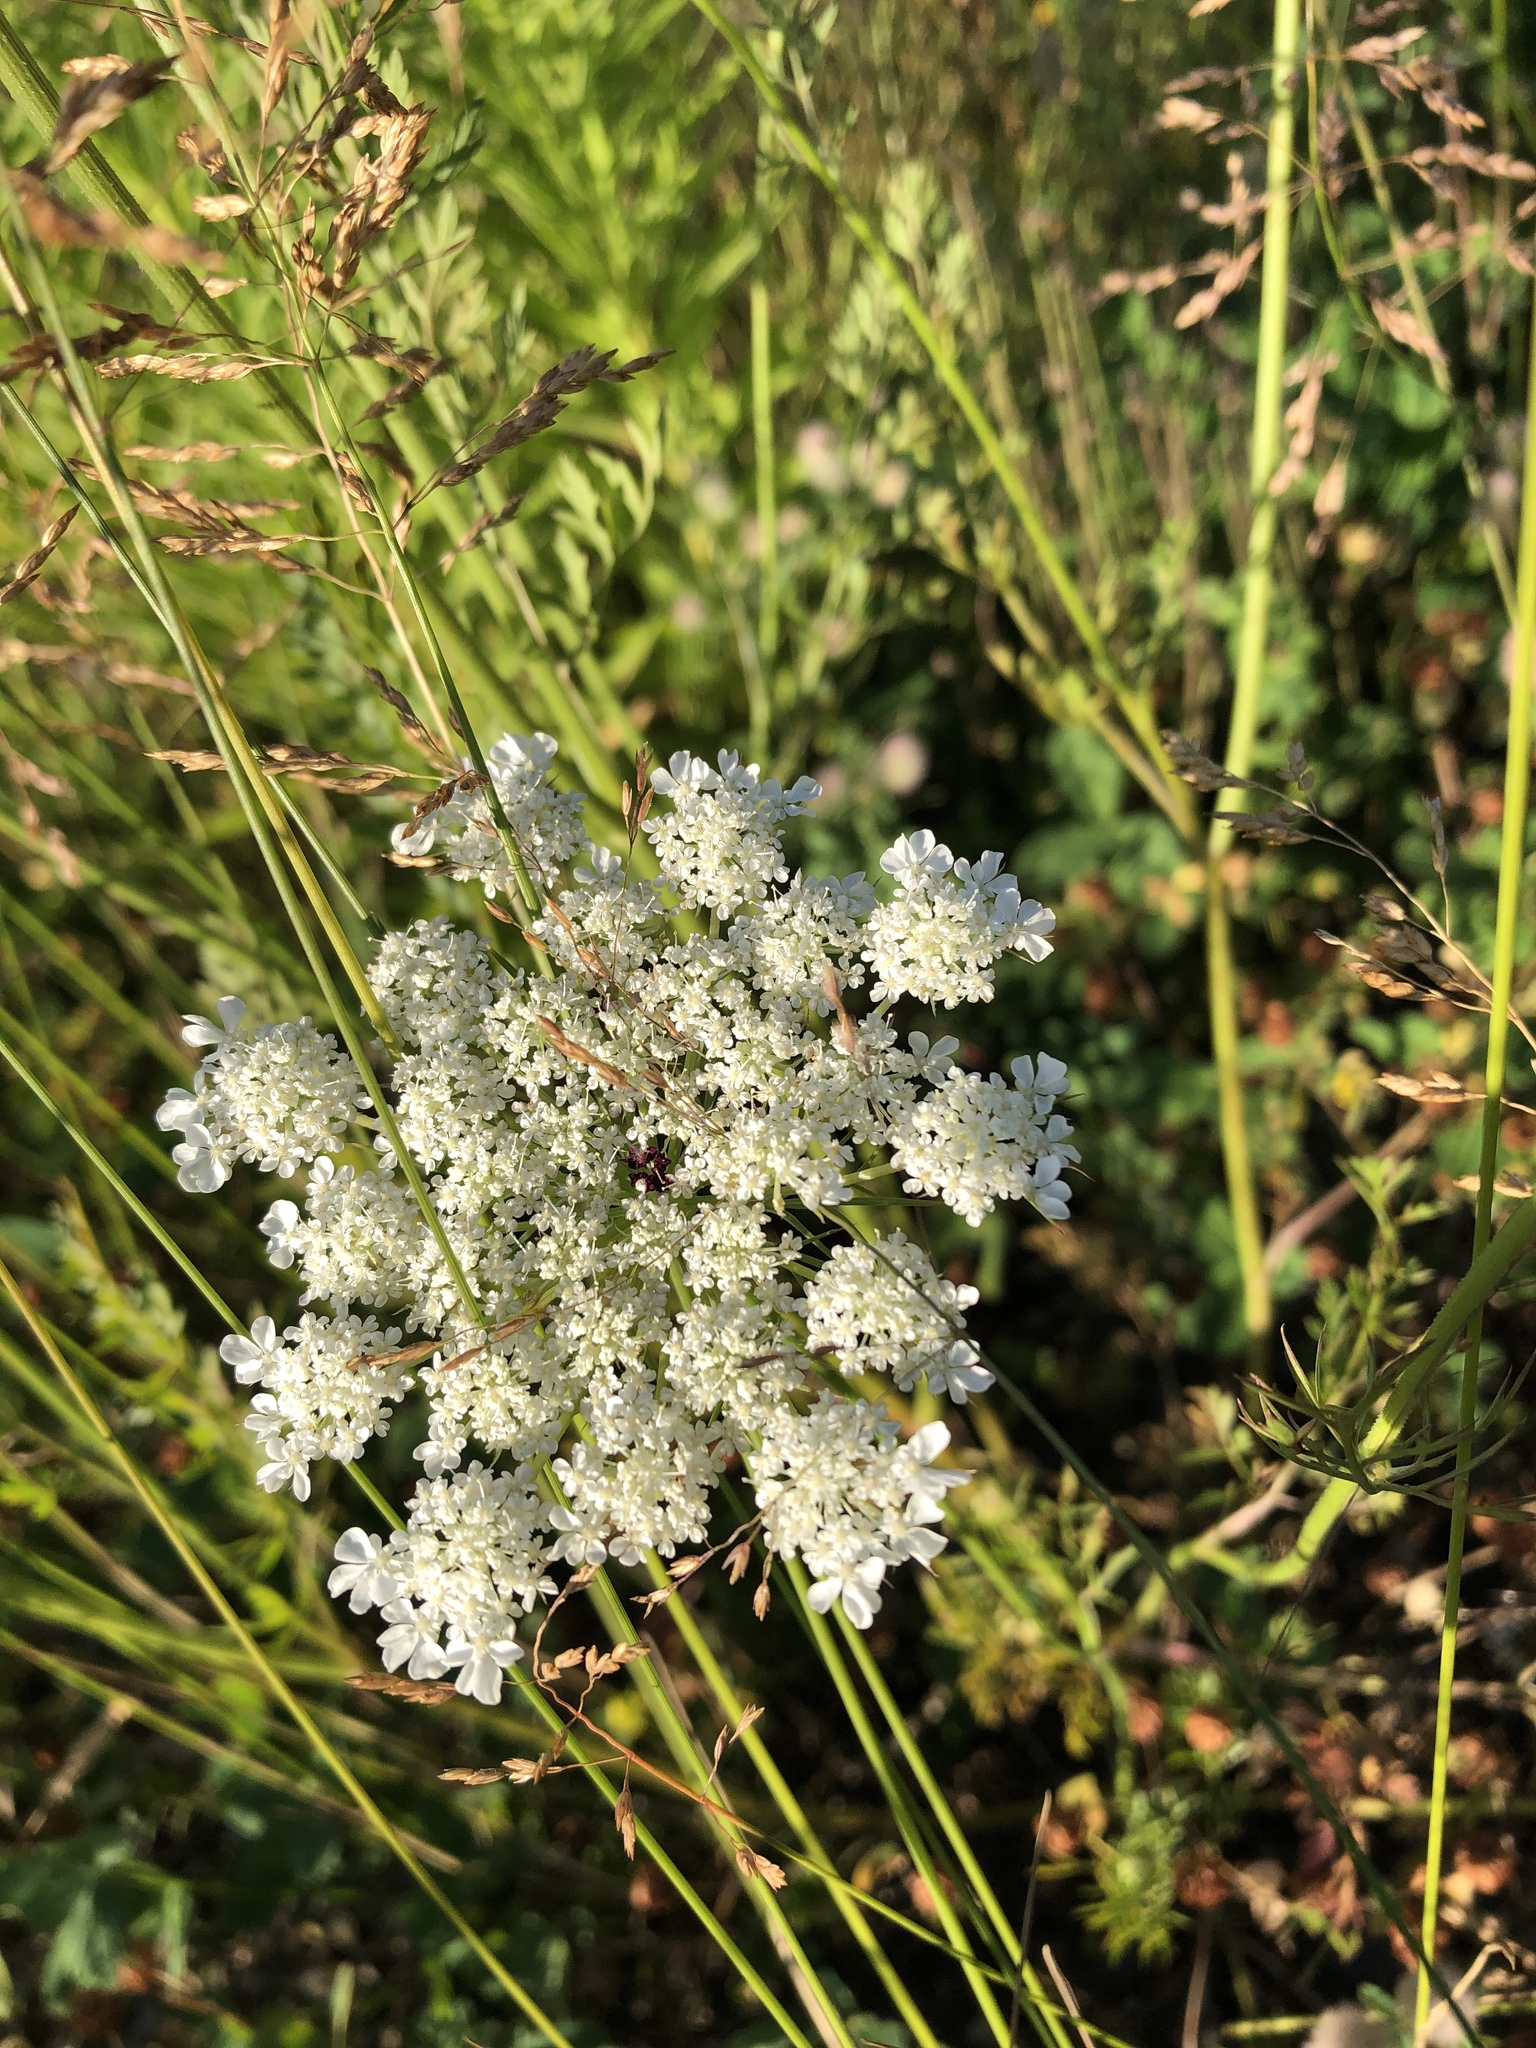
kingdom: Plantae
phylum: Tracheophyta
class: Magnoliopsida
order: Apiales
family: Apiaceae
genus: Daucus
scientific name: Daucus carota
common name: Wild carrot
